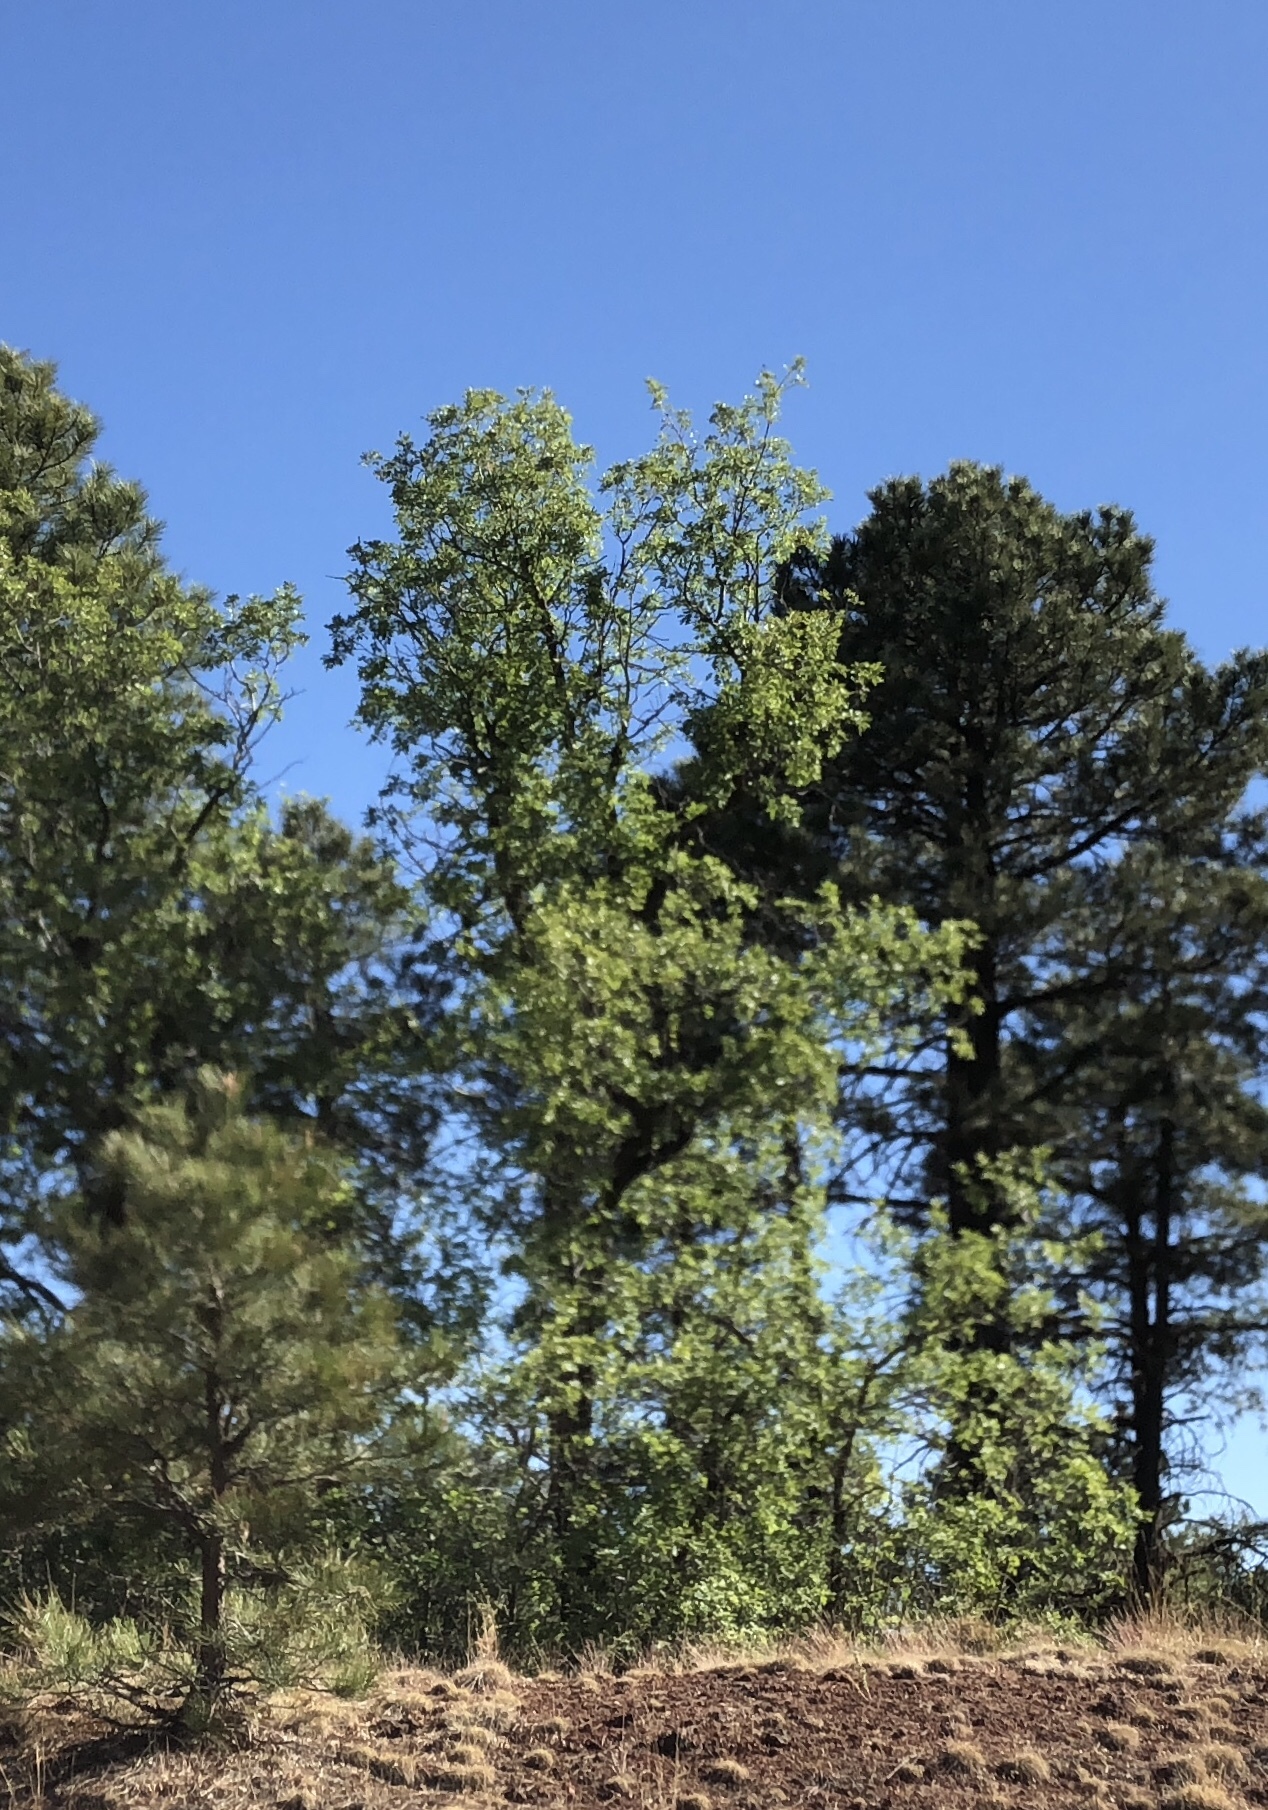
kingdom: Plantae
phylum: Tracheophyta
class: Magnoliopsida
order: Fagales
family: Fagaceae
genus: Quercus
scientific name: Quercus gambelii
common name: Gambel oak
